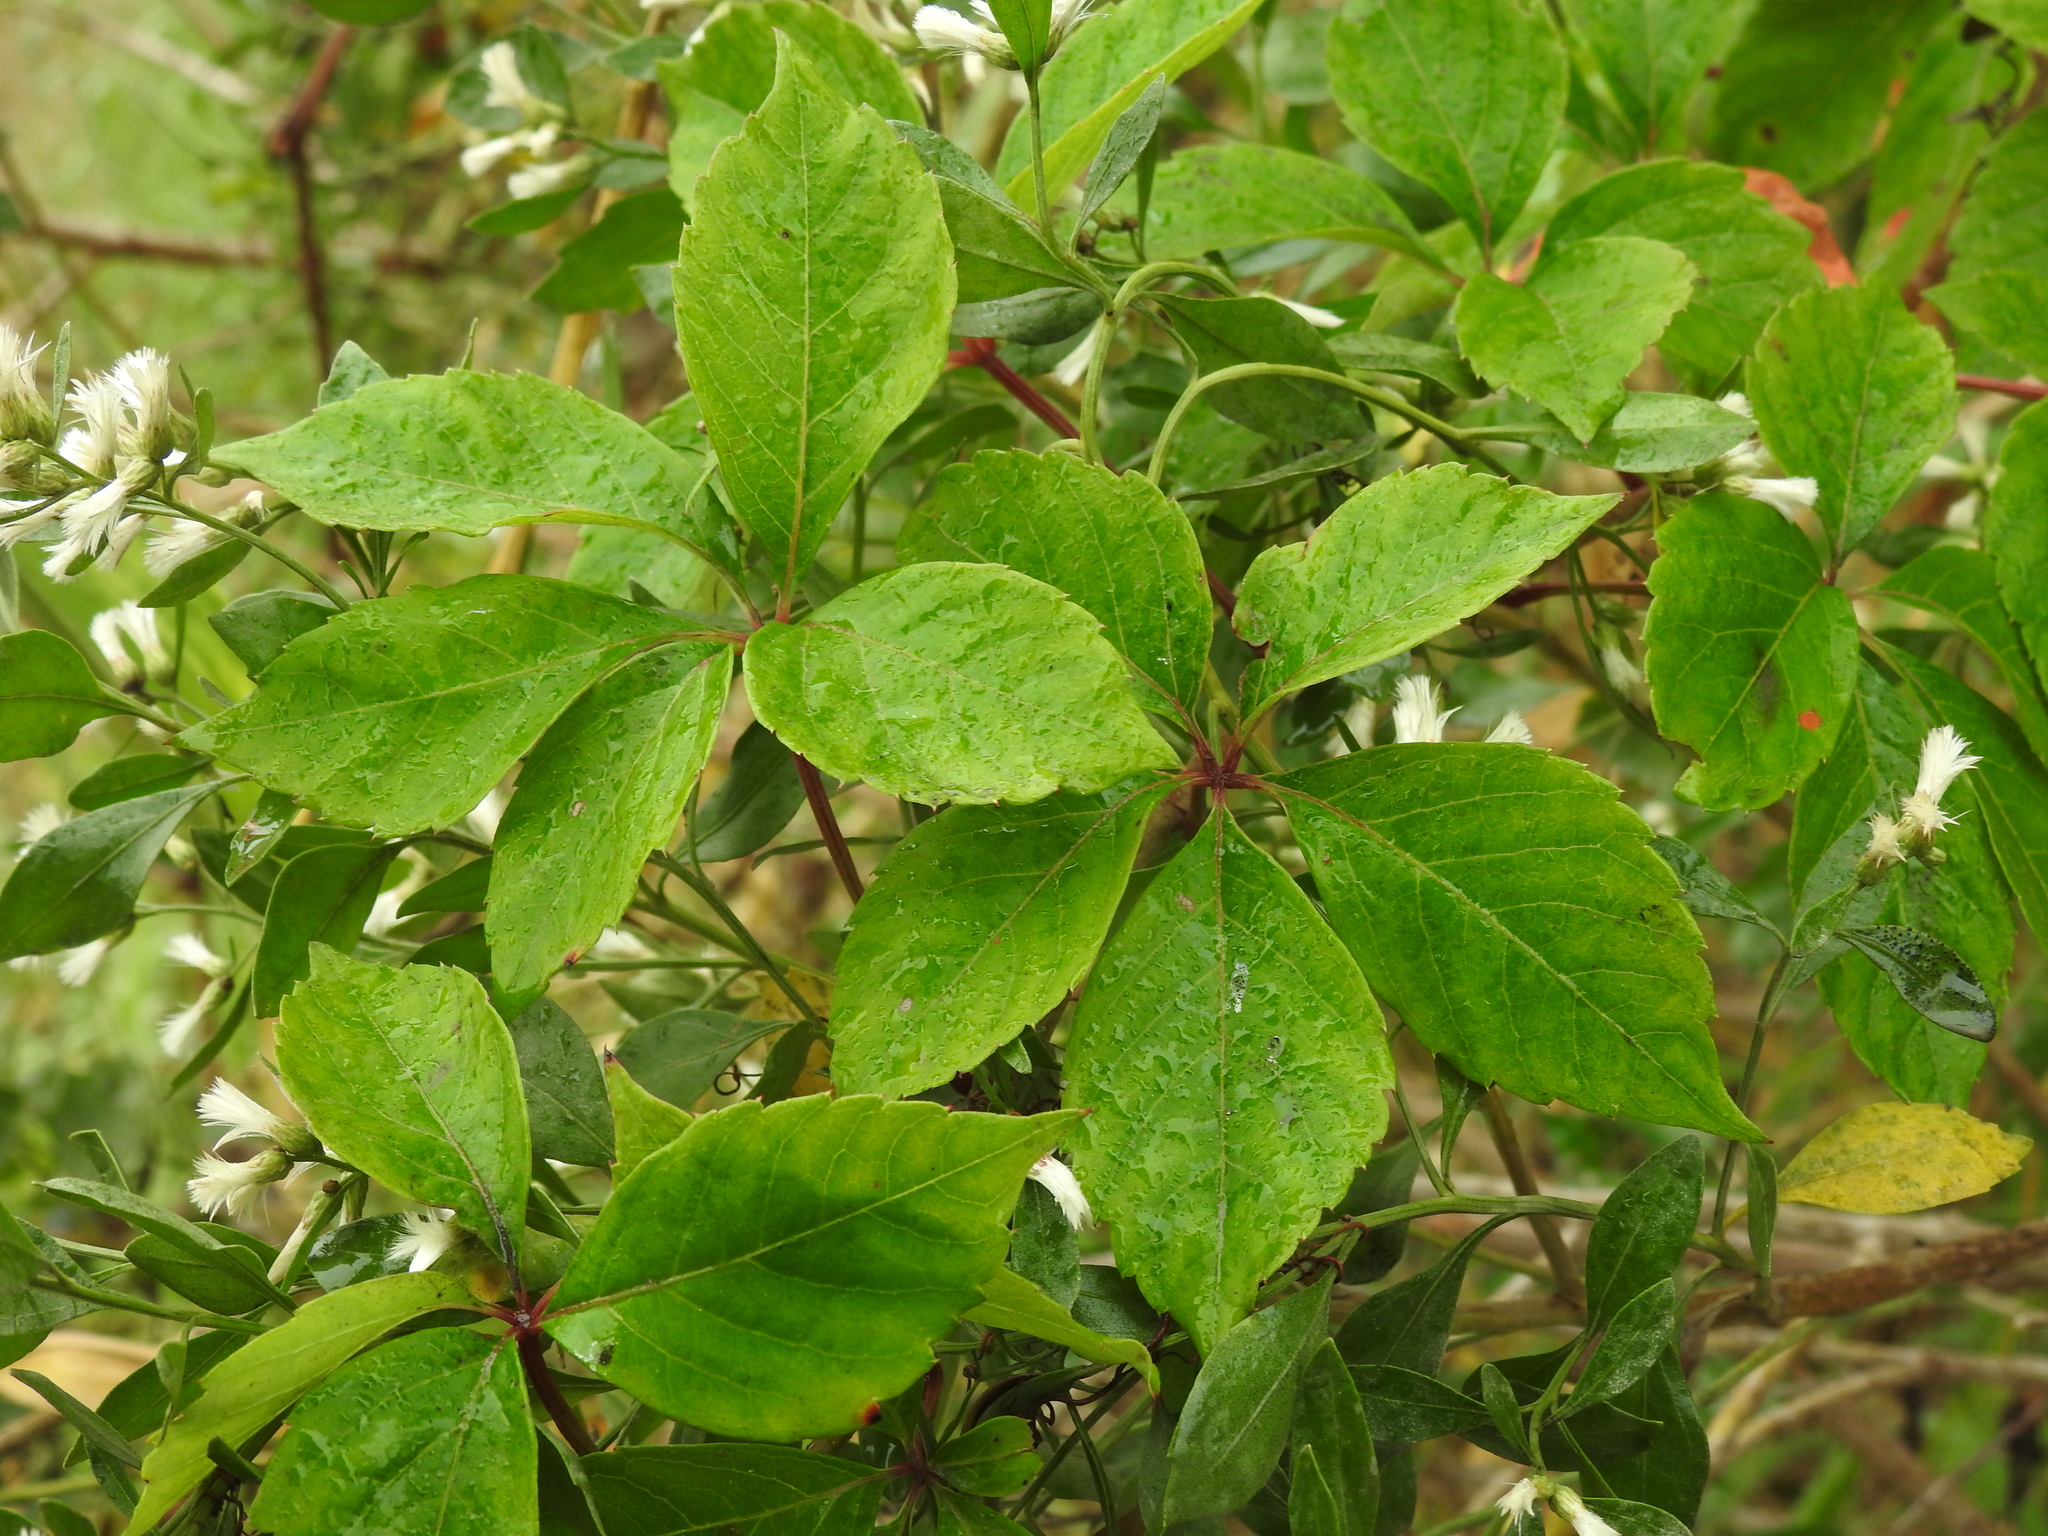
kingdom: Plantae
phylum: Tracheophyta
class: Magnoliopsida
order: Vitales
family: Vitaceae
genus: Parthenocissus
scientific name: Parthenocissus quinquefolia
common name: Virginia-creeper
